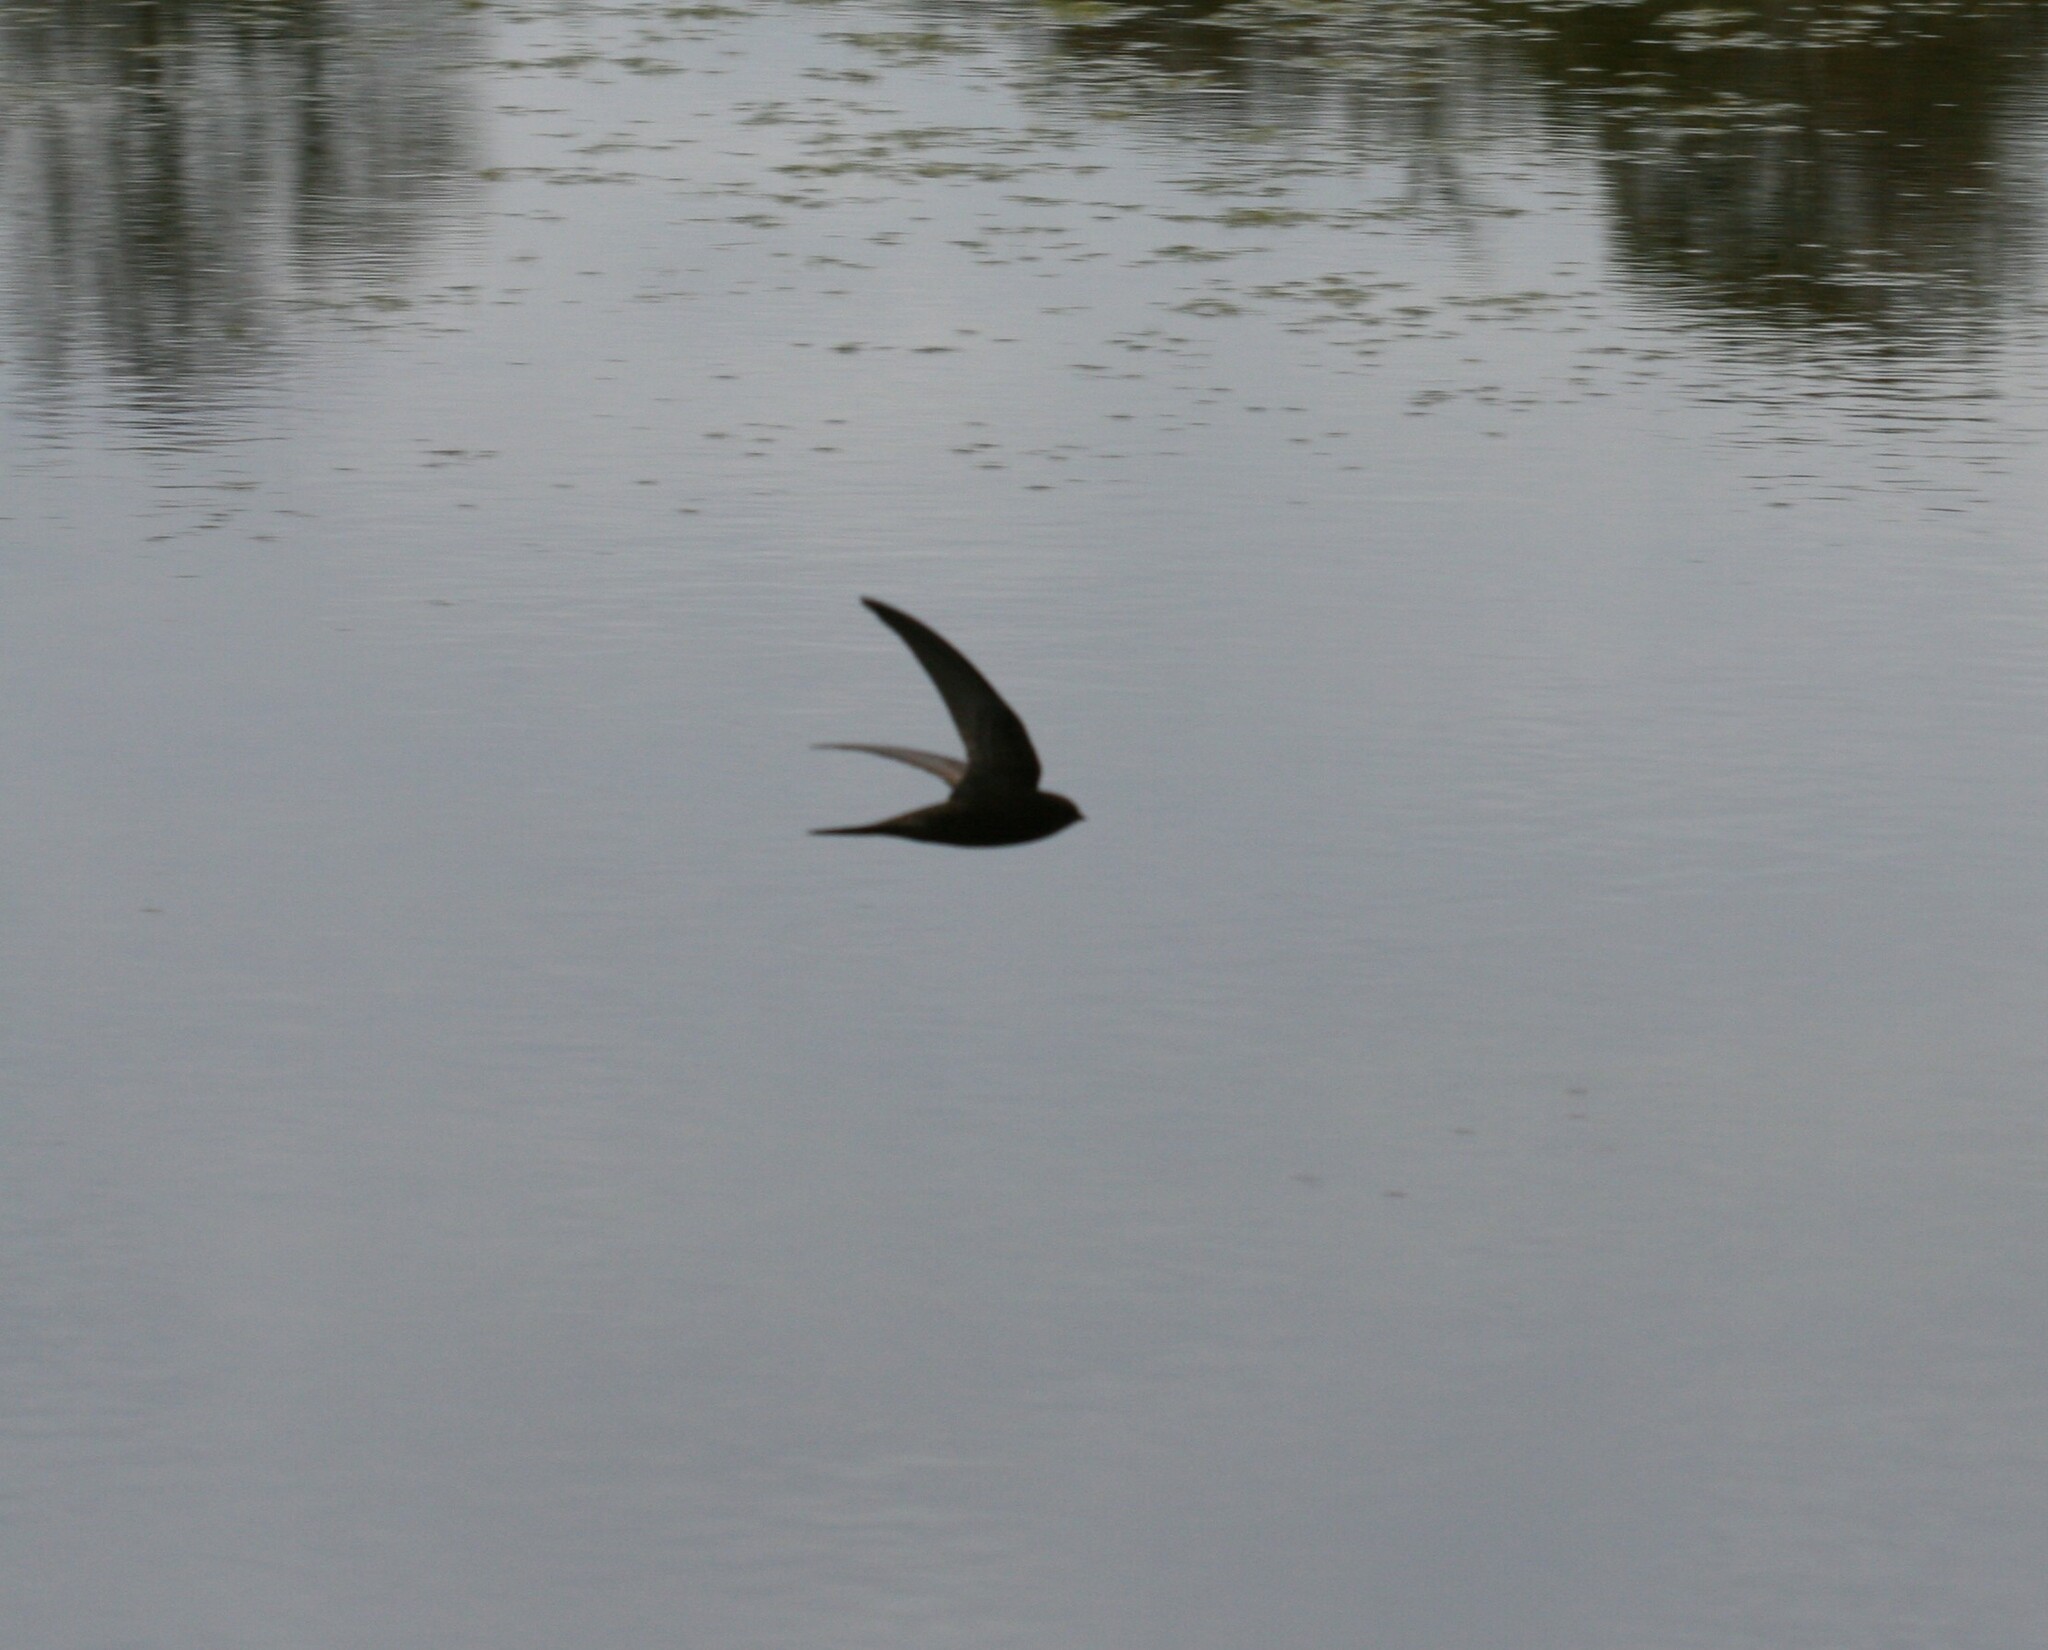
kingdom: Animalia
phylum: Chordata
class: Aves
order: Apodiformes
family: Apodidae
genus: Apus
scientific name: Apus apus
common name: Common swift
